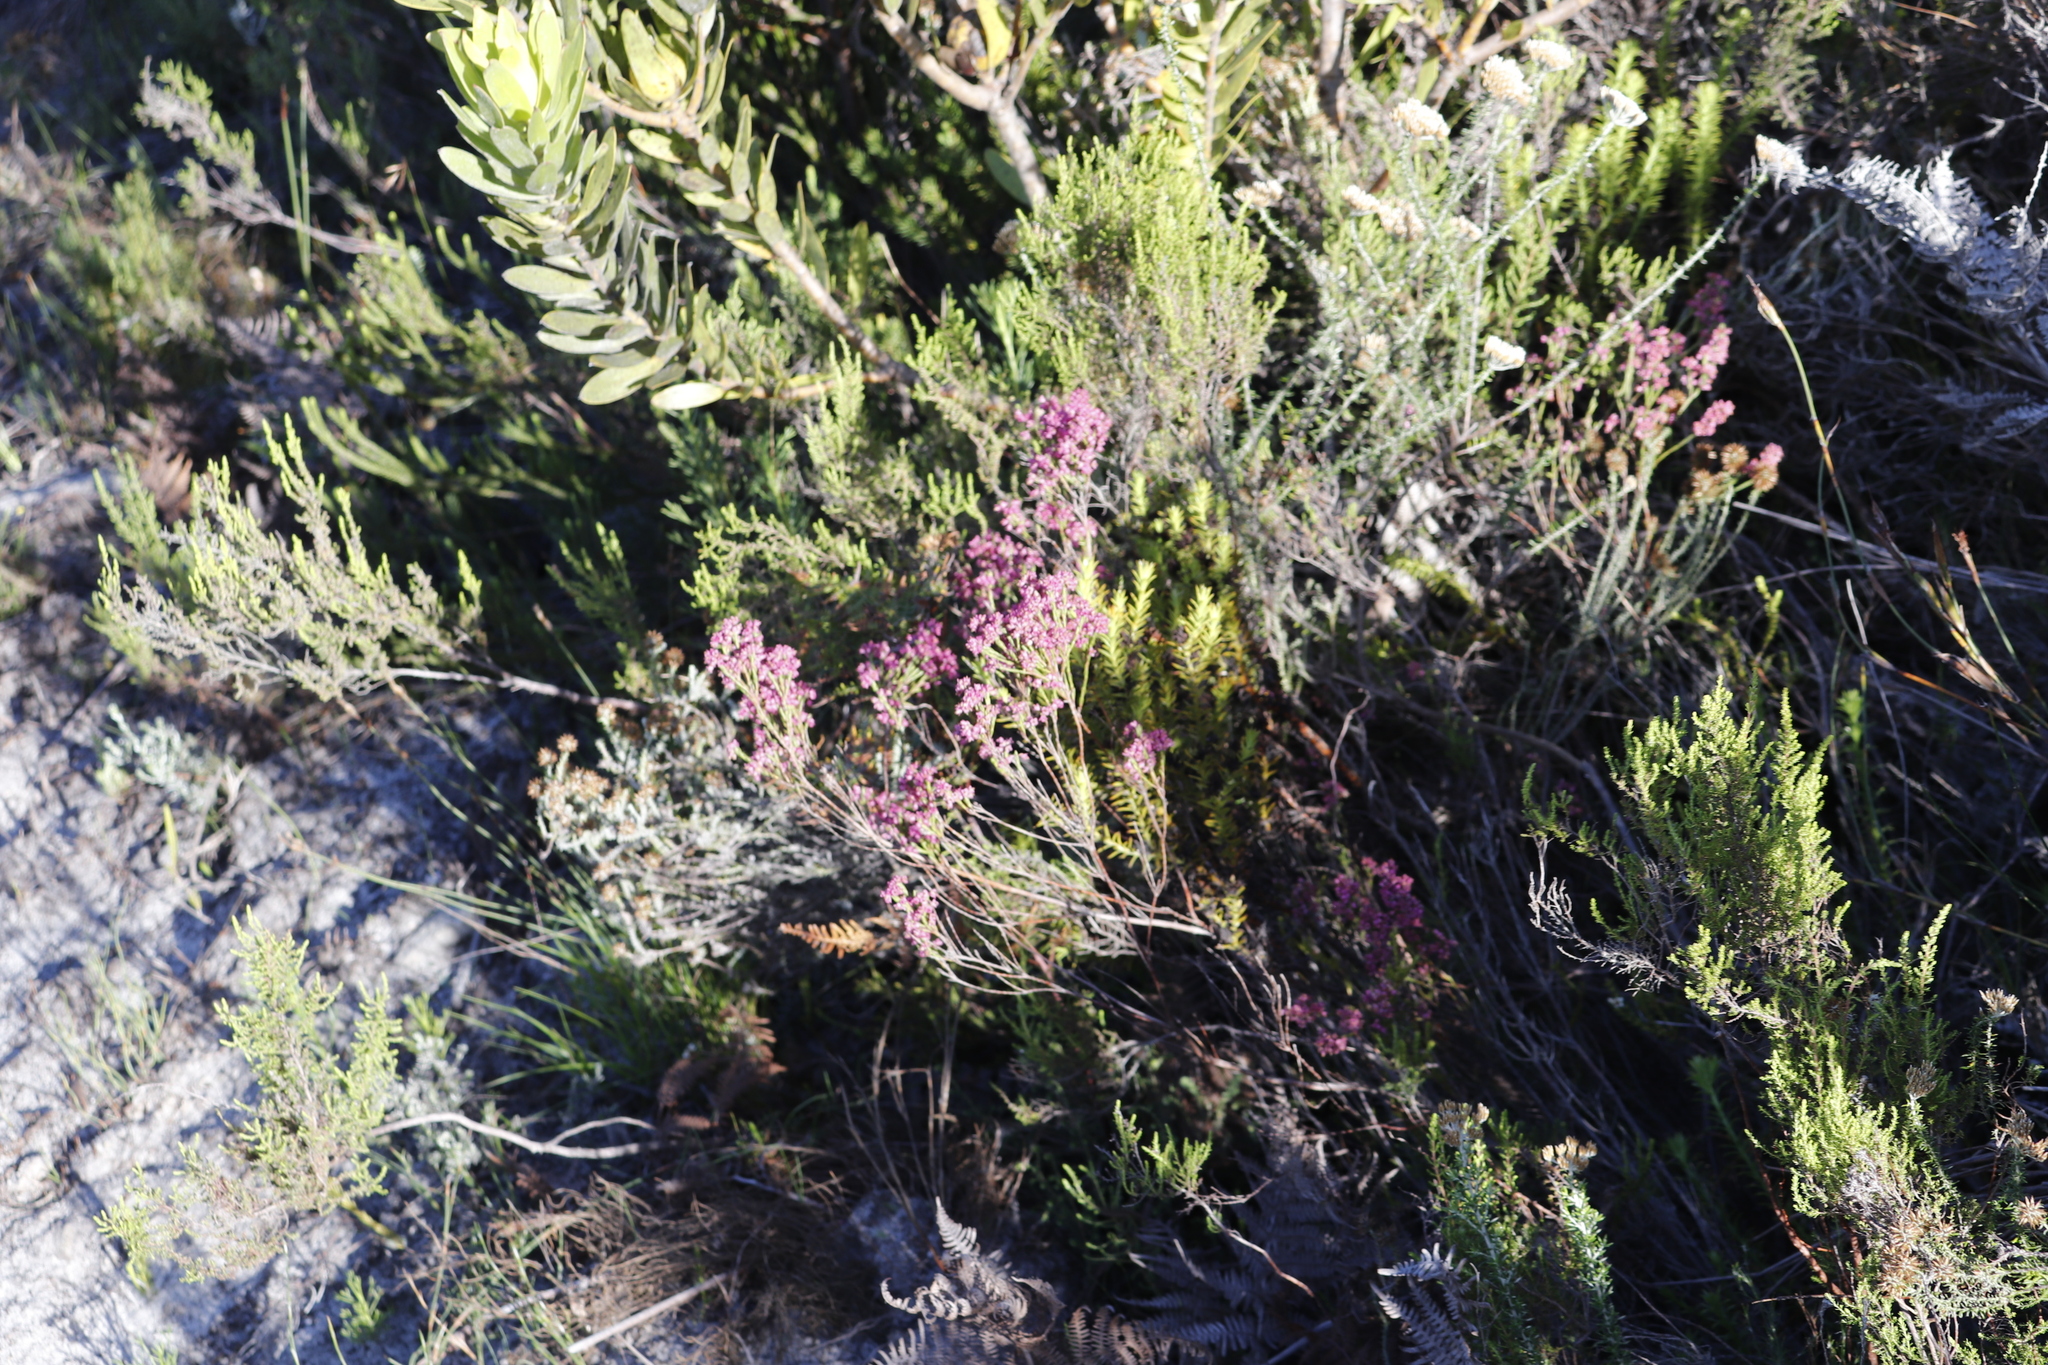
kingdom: Plantae
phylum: Tracheophyta
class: Magnoliopsida
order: Ericales
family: Ericaceae
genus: Erica
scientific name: Erica corifolia
